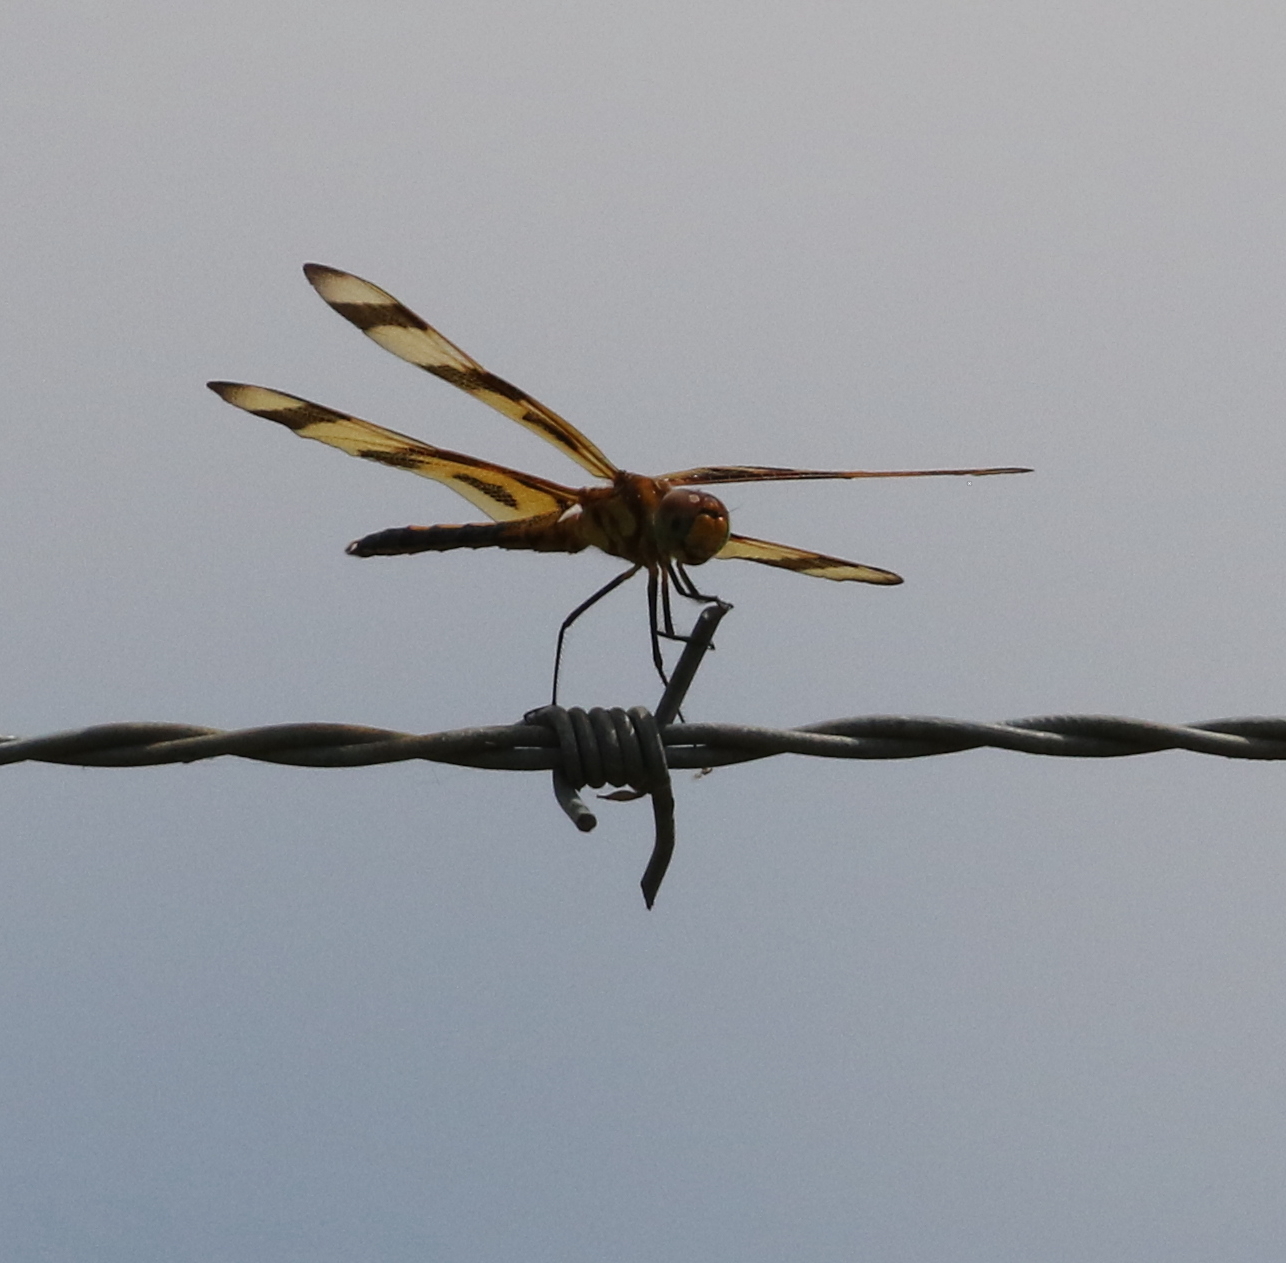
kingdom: Animalia
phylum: Arthropoda
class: Insecta
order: Odonata
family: Libellulidae
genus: Celithemis
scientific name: Celithemis eponina
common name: Halloween pennant
